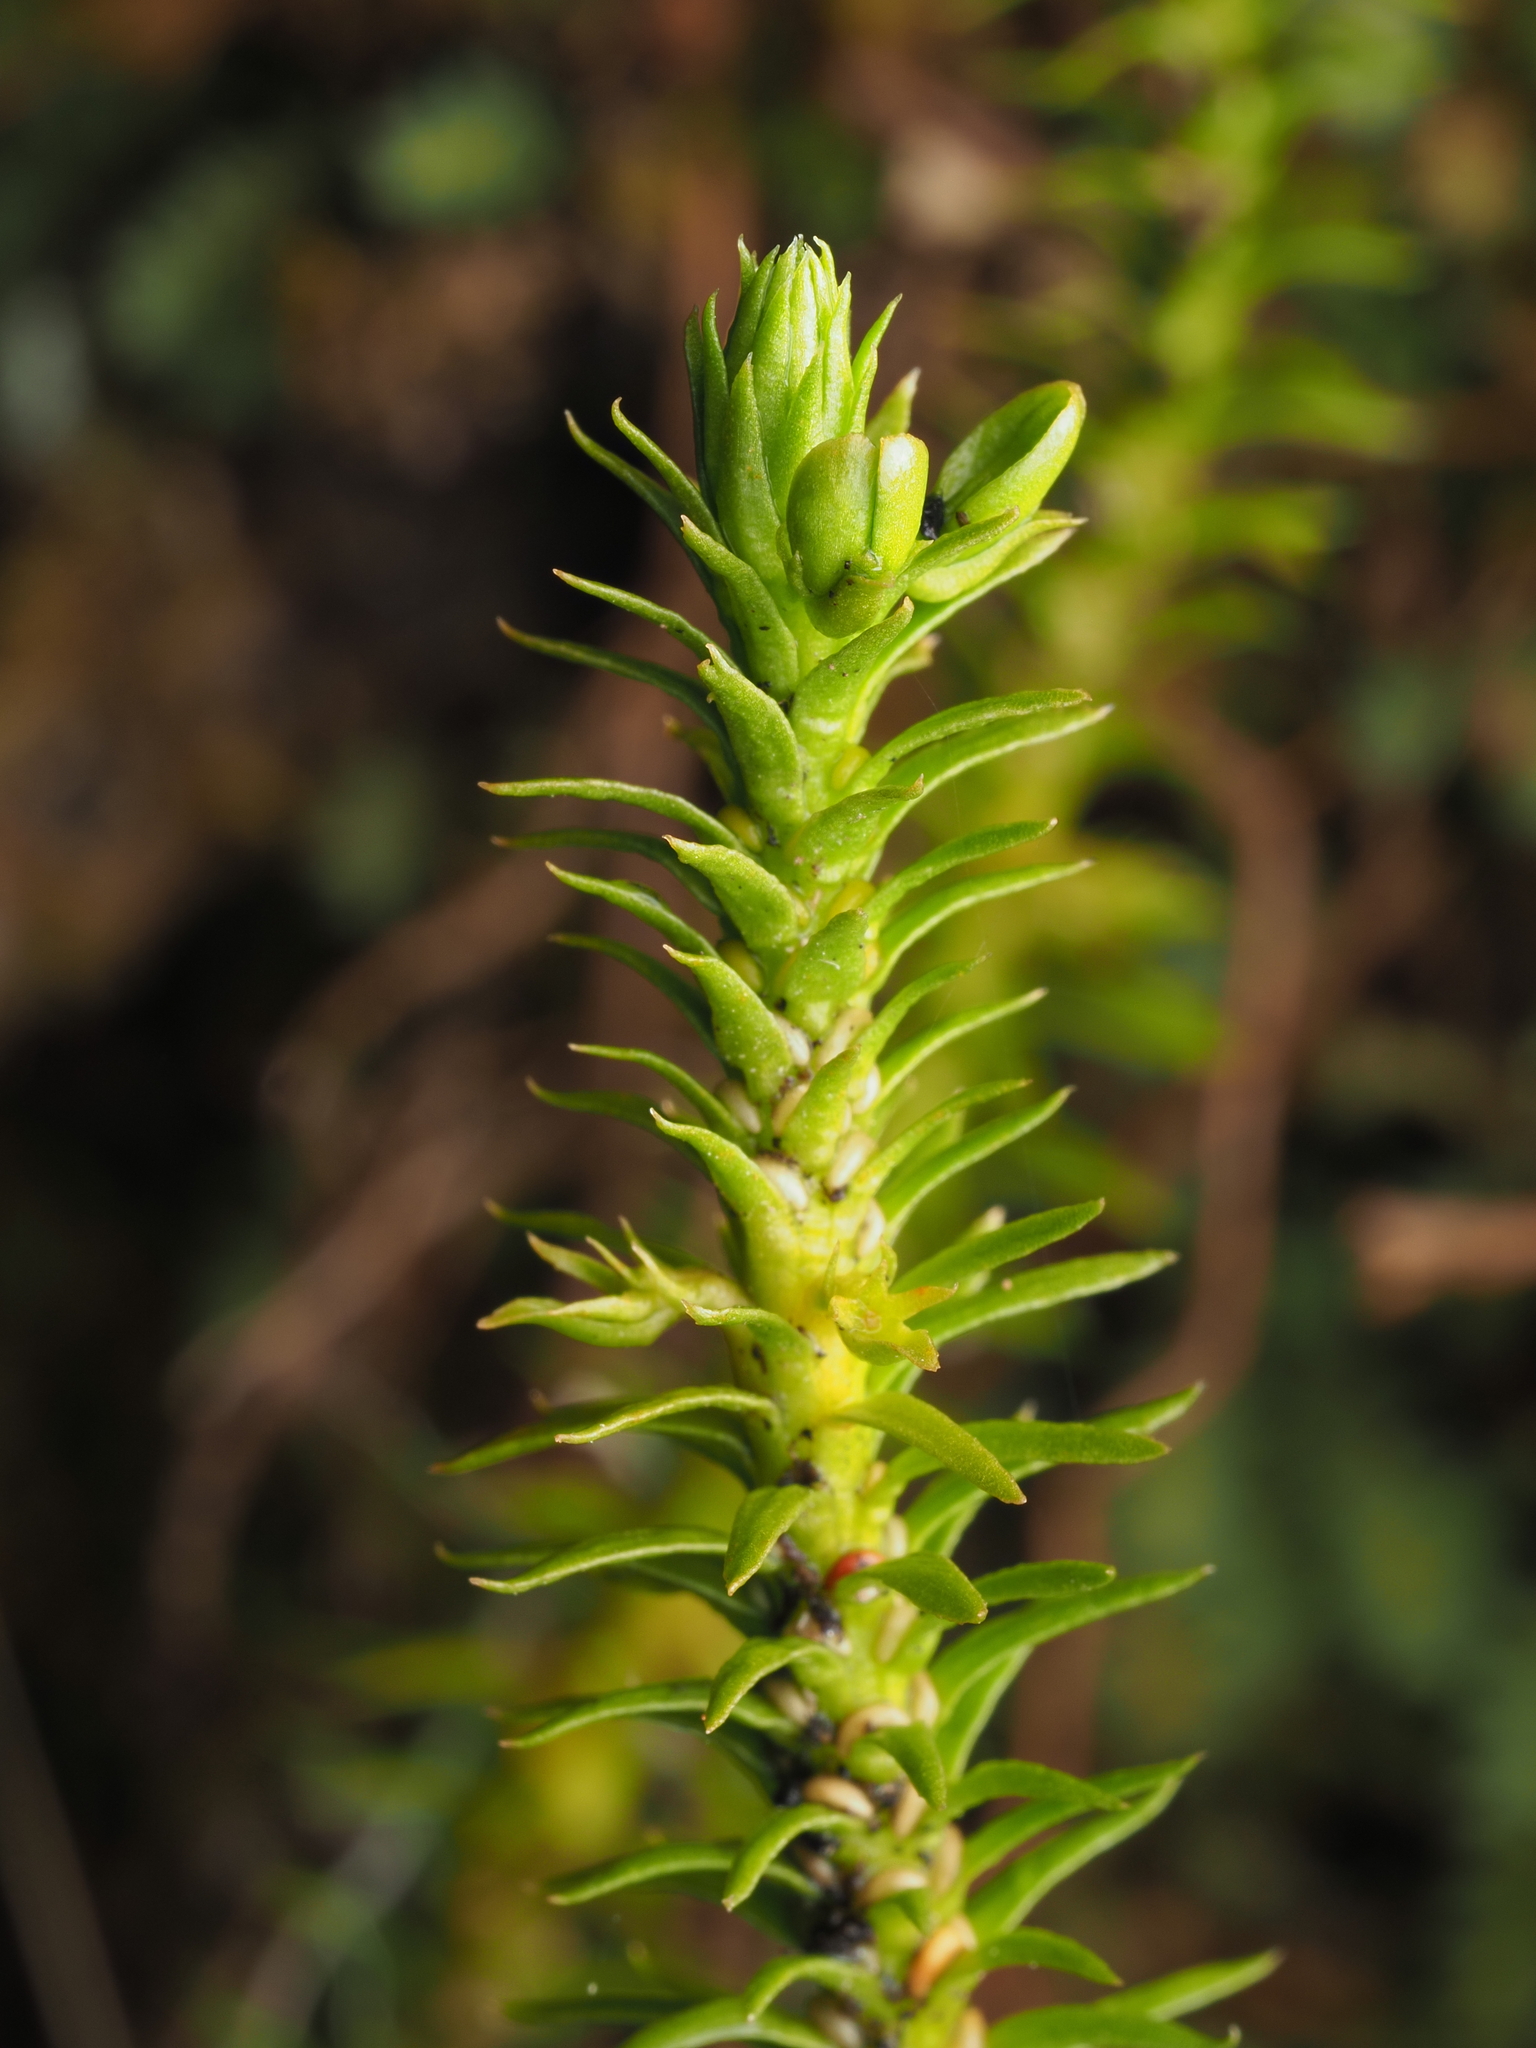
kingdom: Plantae
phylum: Tracheophyta
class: Lycopodiopsida
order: Lycopodiales
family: Lycopodiaceae
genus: Huperzia
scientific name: Huperzia australiana
